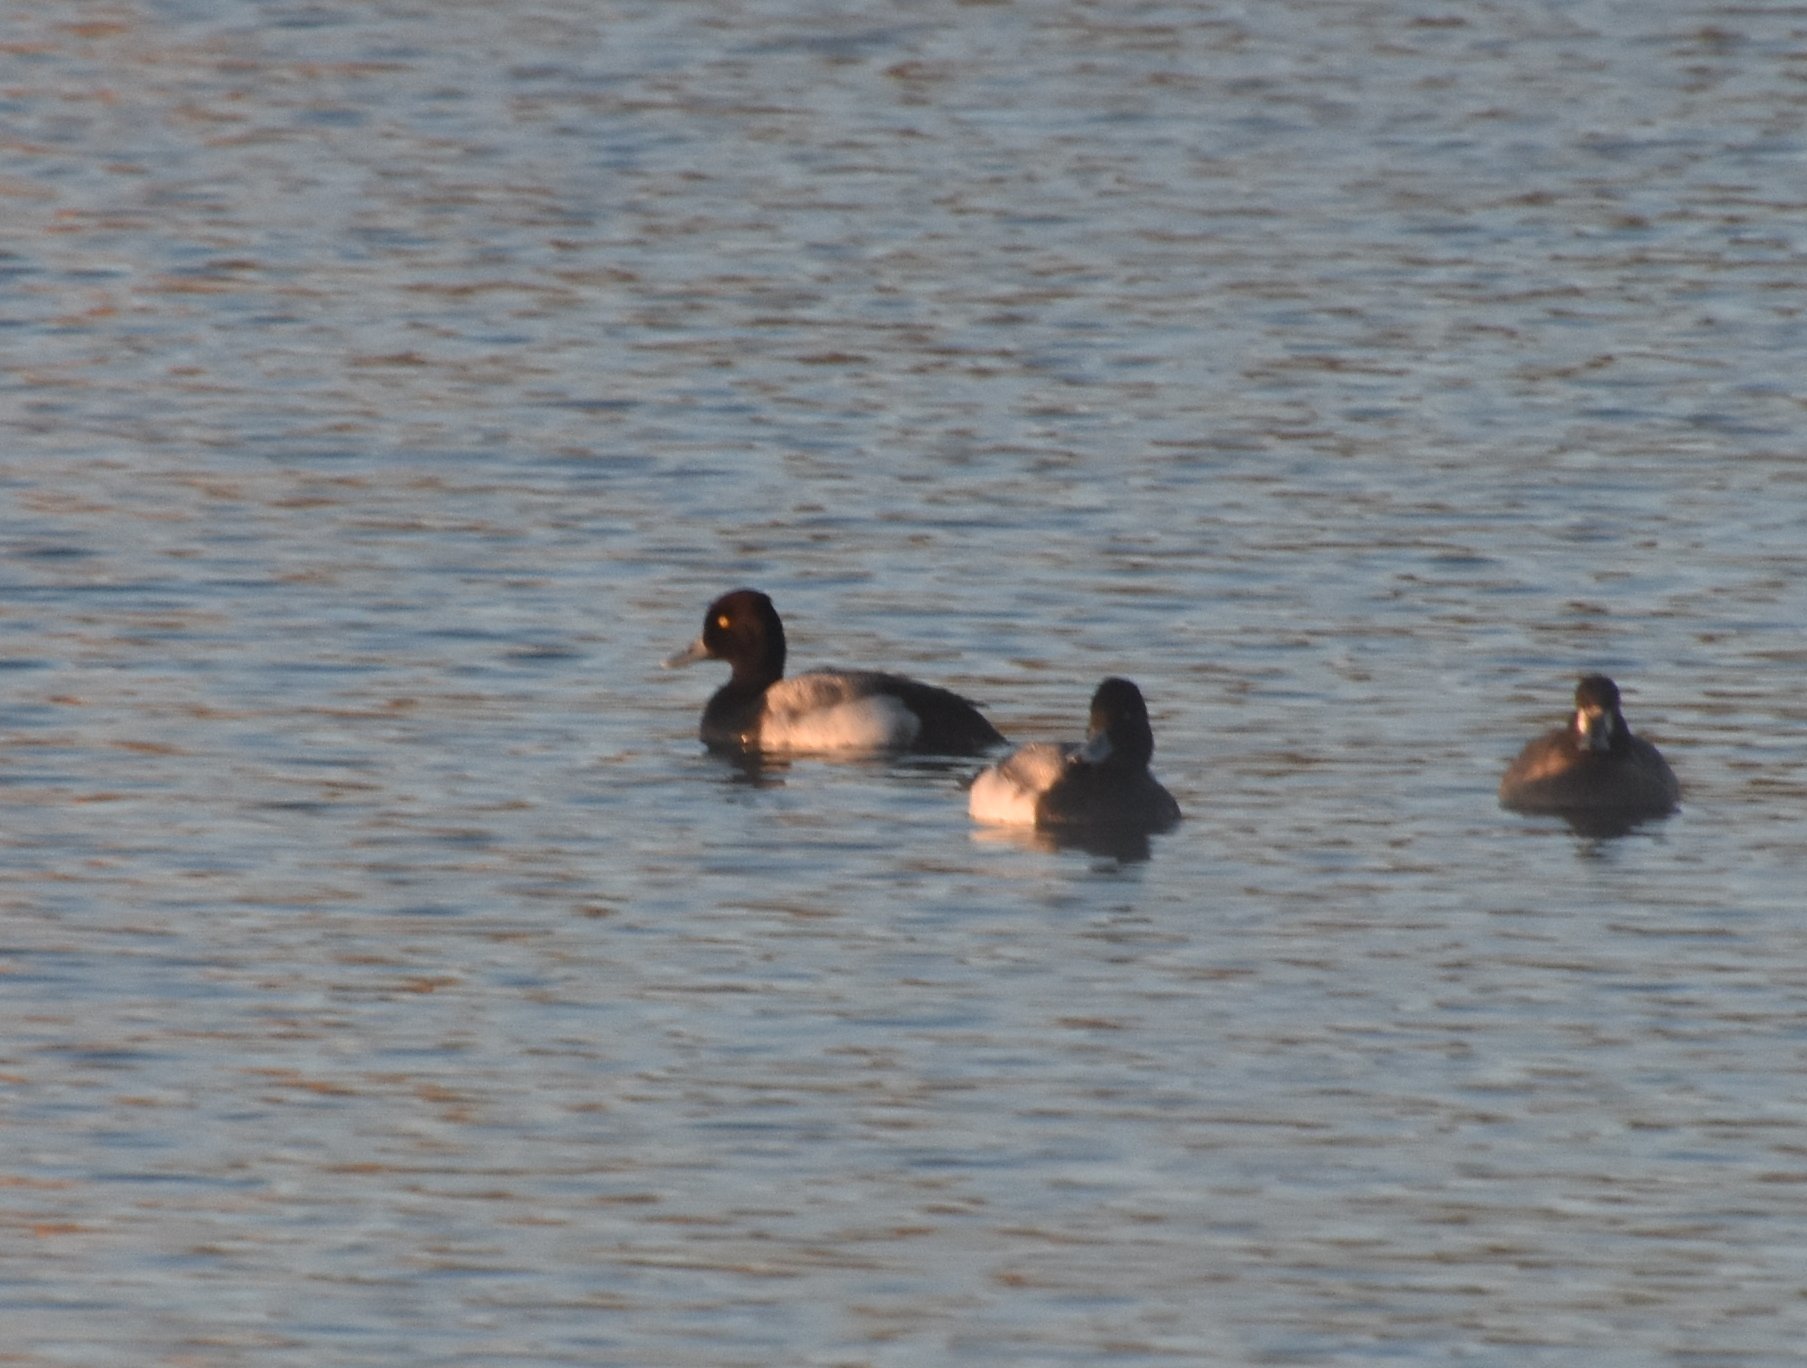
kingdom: Animalia
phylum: Chordata
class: Aves
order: Anseriformes
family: Anatidae
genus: Aythya
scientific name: Aythya affinis
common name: Lesser scaup
